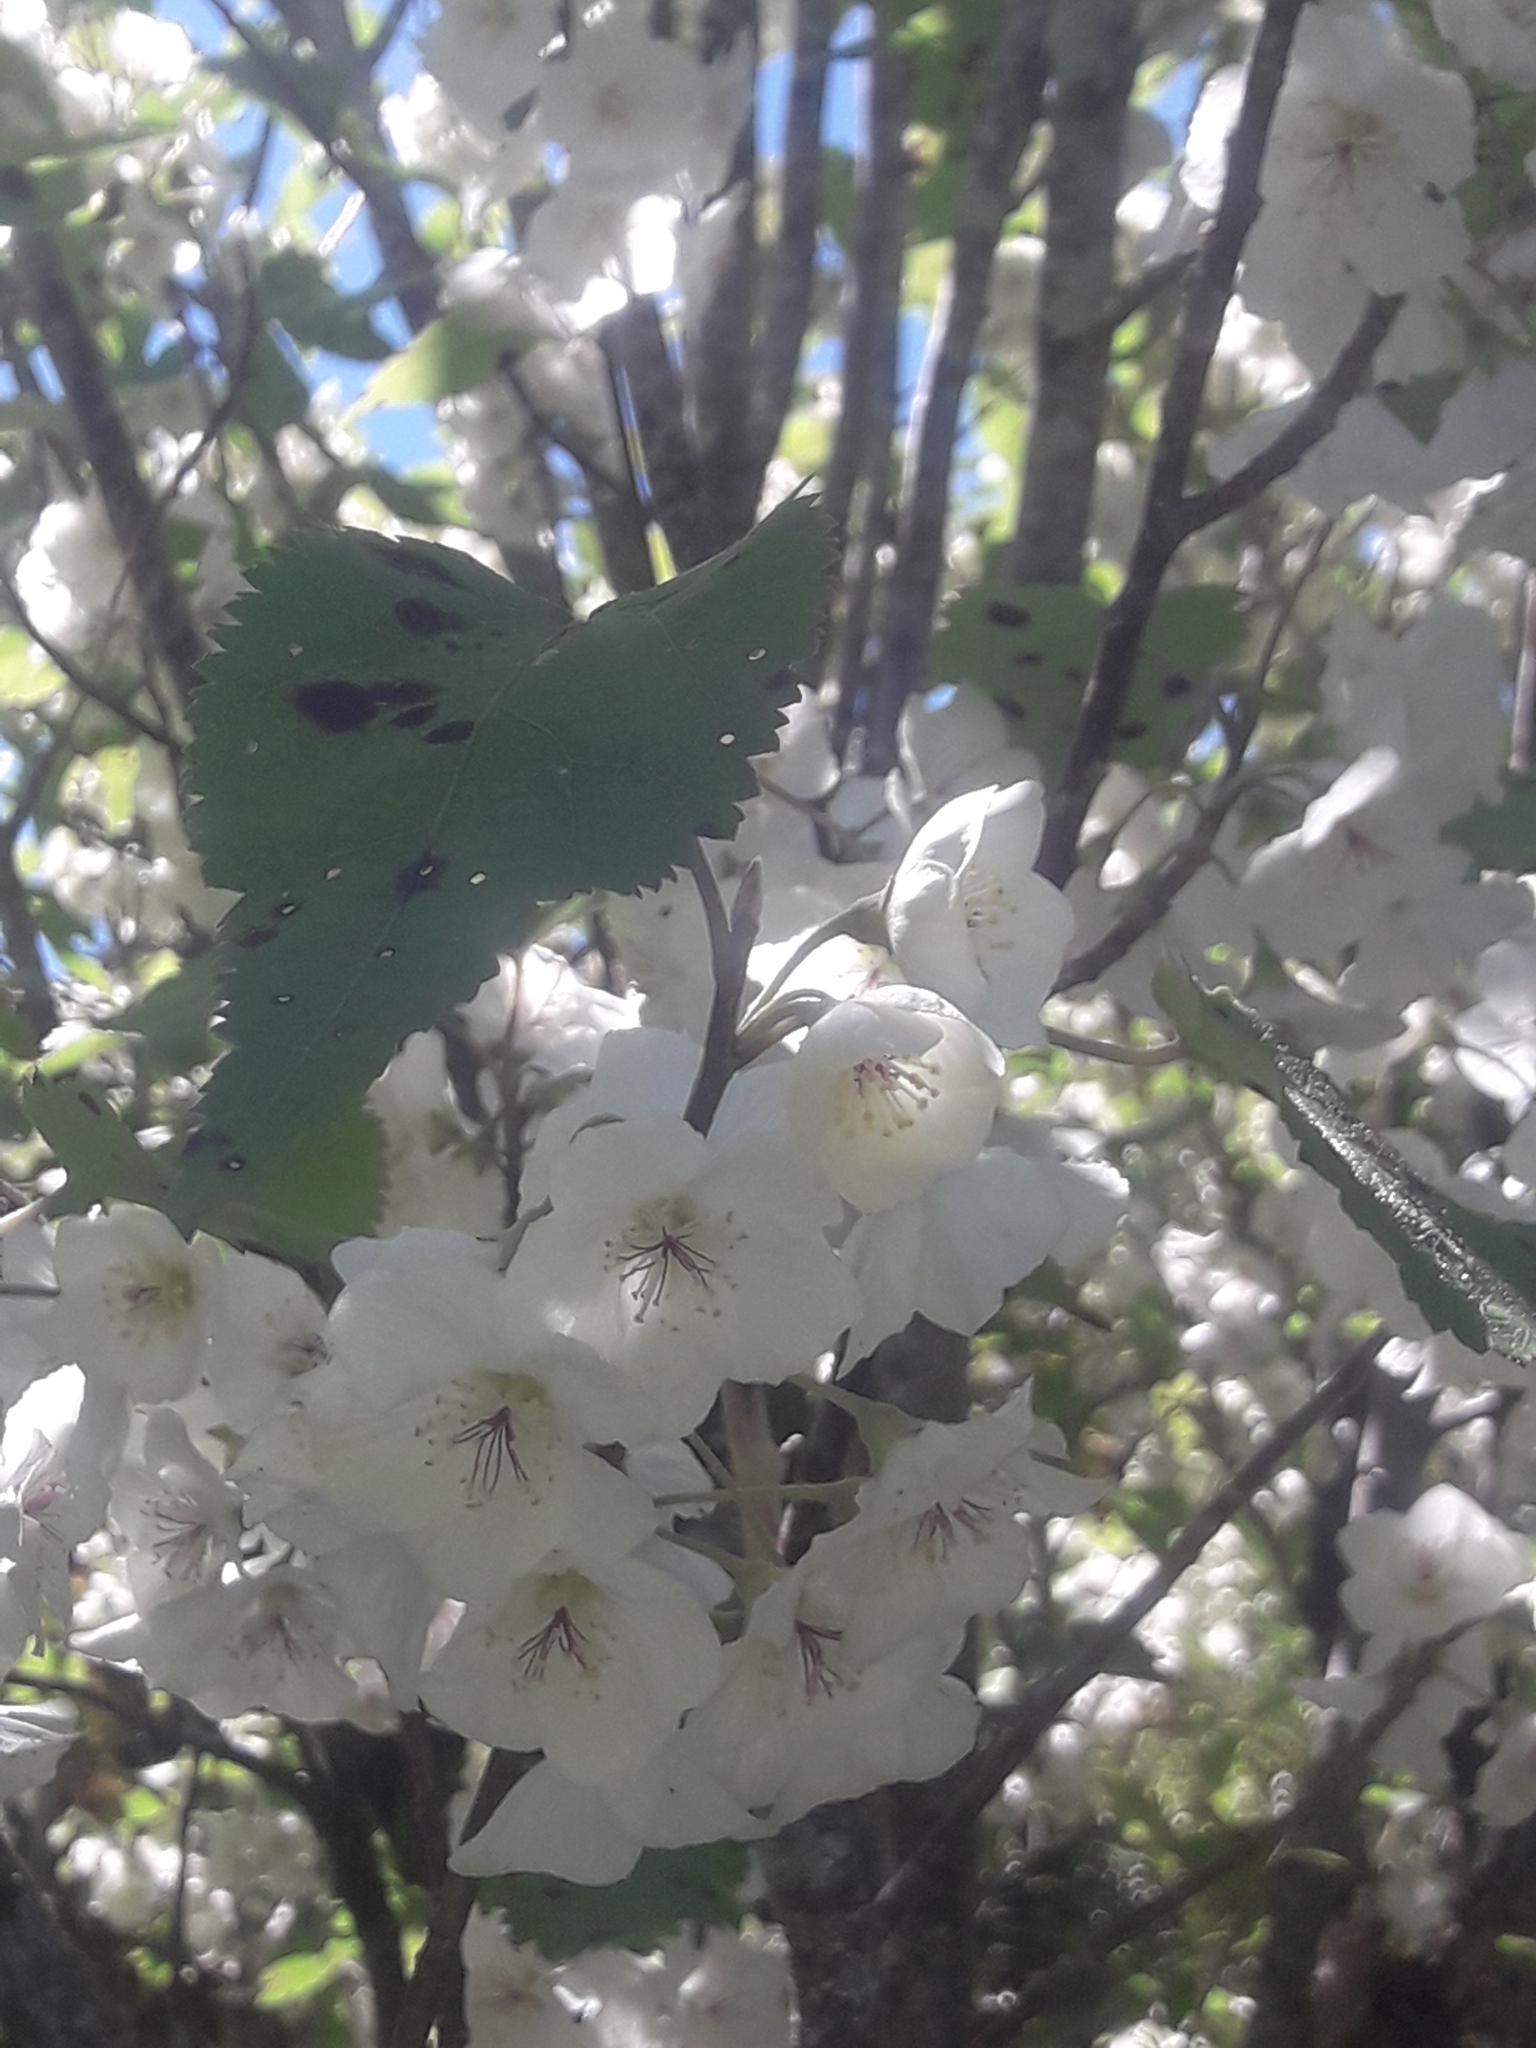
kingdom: Plantae
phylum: Tracheophyta
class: Magnoliopsida
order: Malvales
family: Malvaceae
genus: Hoheria
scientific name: Hoheria glabrata
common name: Mountain-ribbon
